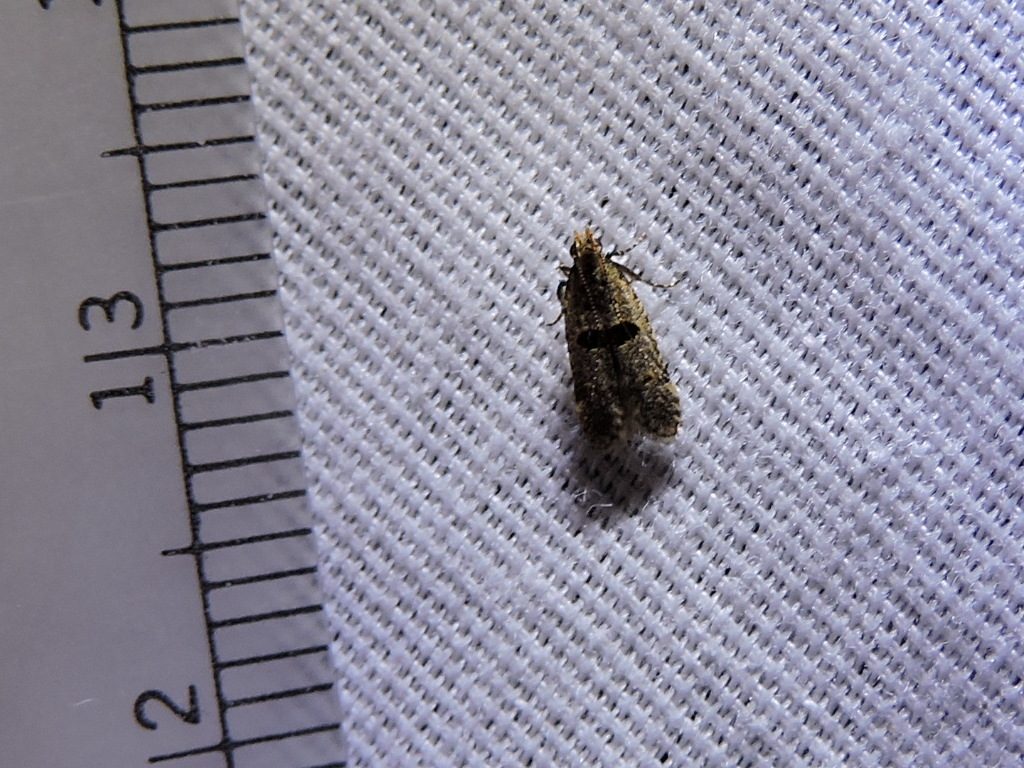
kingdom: Animalia
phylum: Arthropoda
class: Insecta
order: Lepidoptera
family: Gelechiidae
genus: Deltophora
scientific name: Deltophora glandiferella
